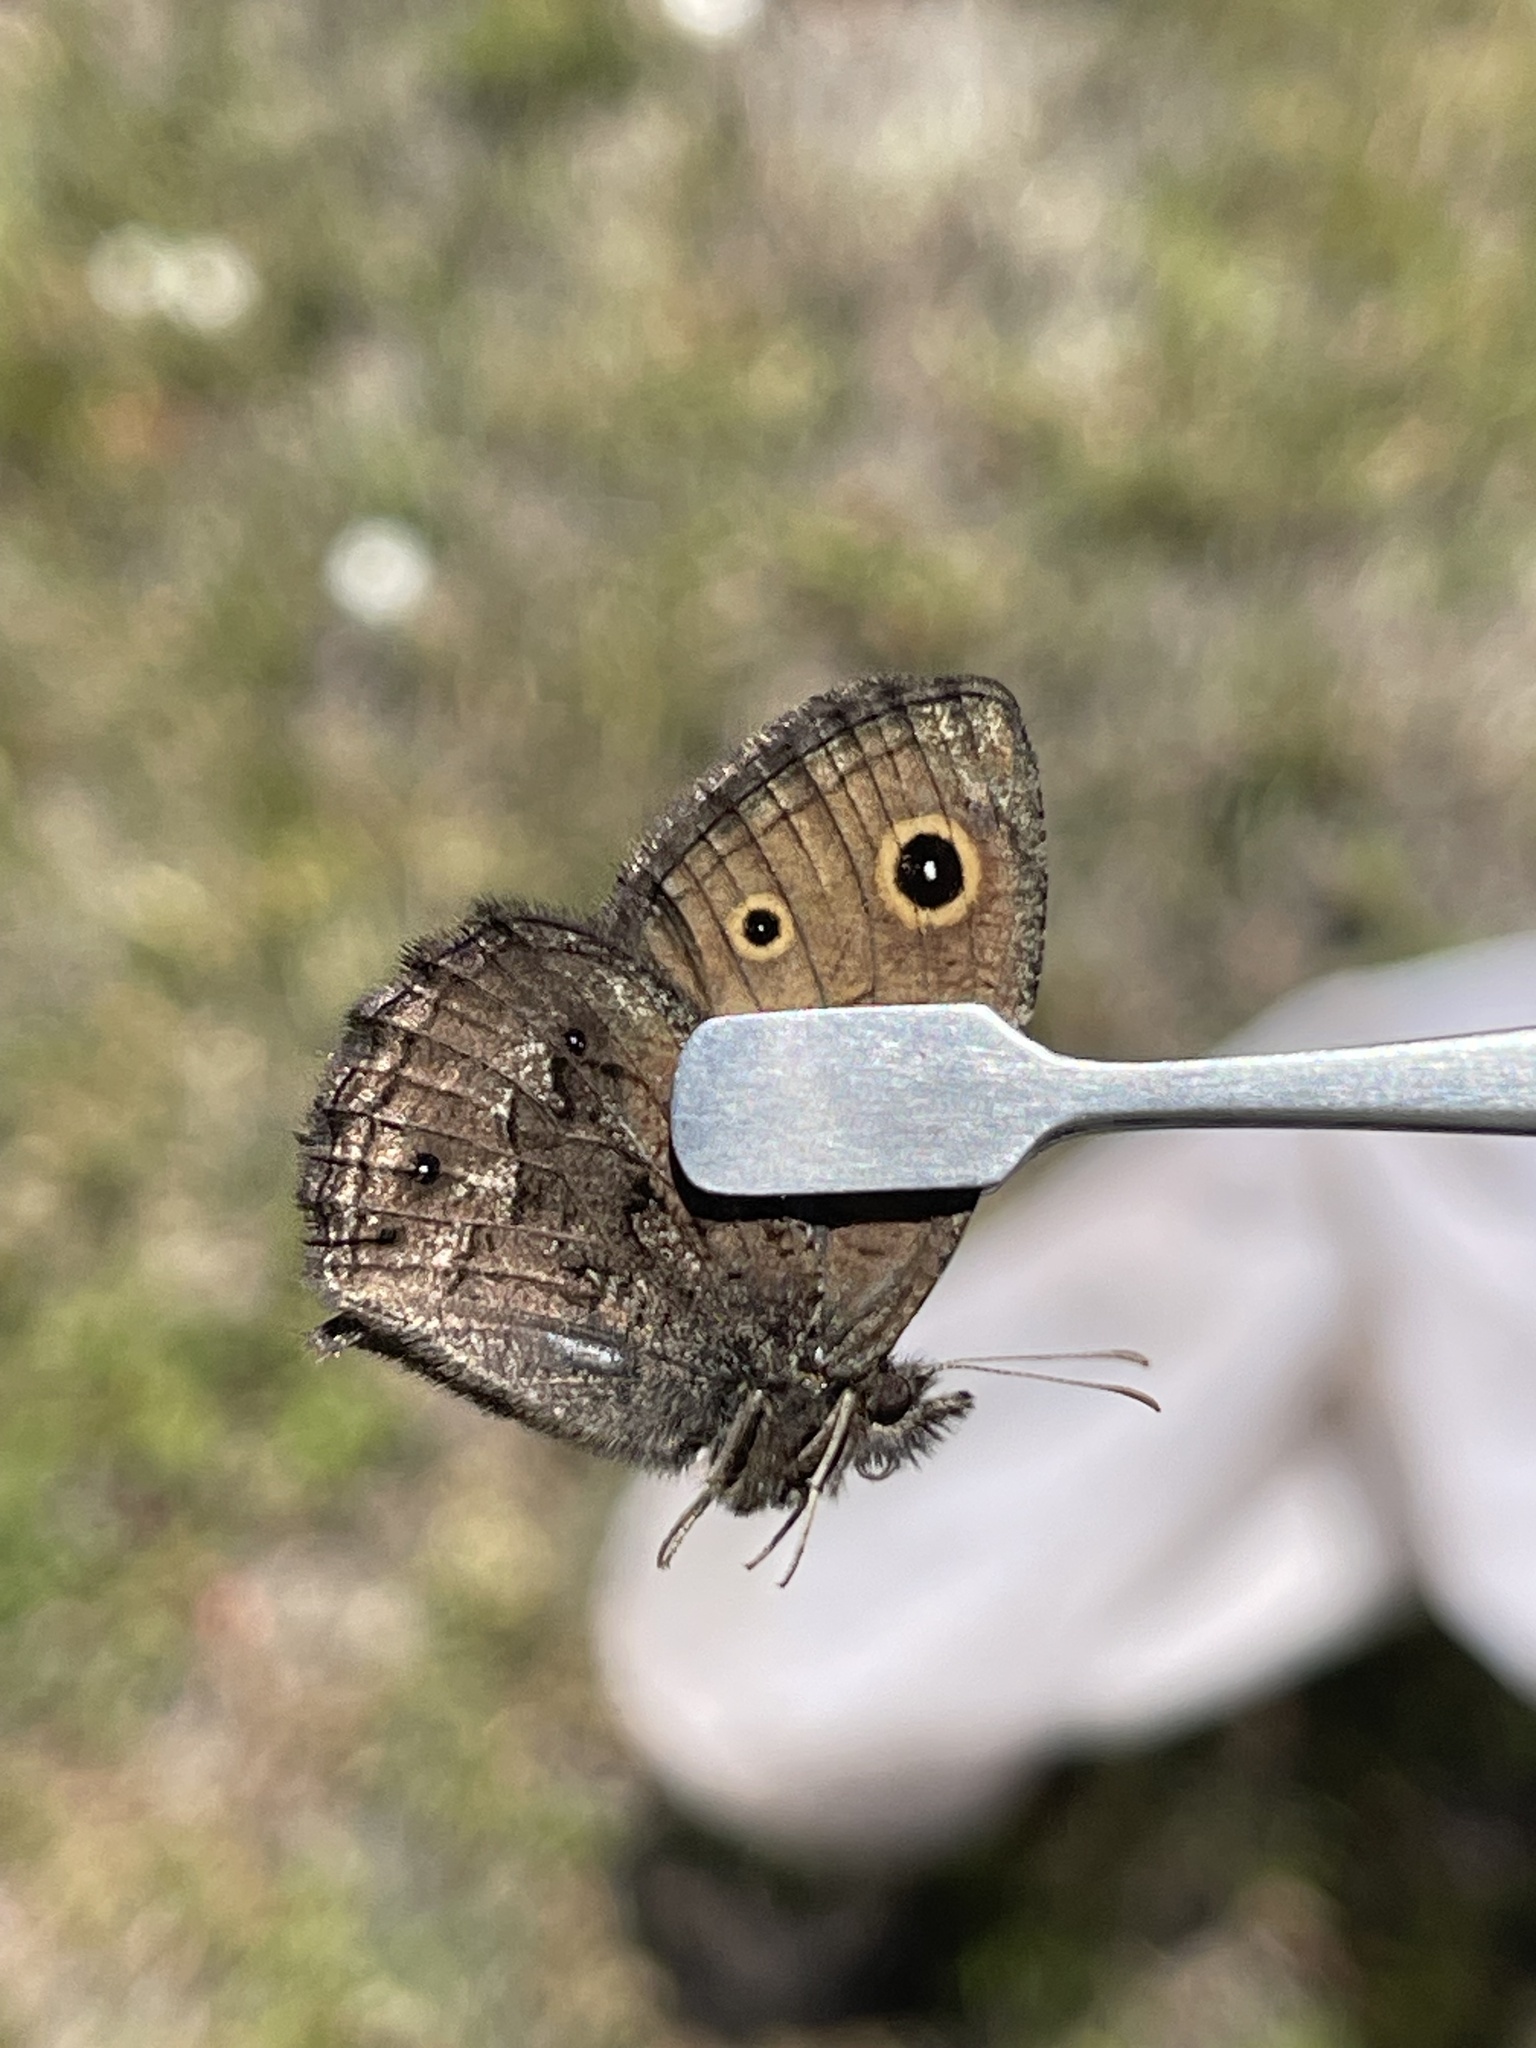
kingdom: Animalia
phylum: Arthropoda
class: Insecta
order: Lepidoptera
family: Nymphalidae
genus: Cercyonis
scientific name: Cercyonis oetus
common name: Small wood-nymph
